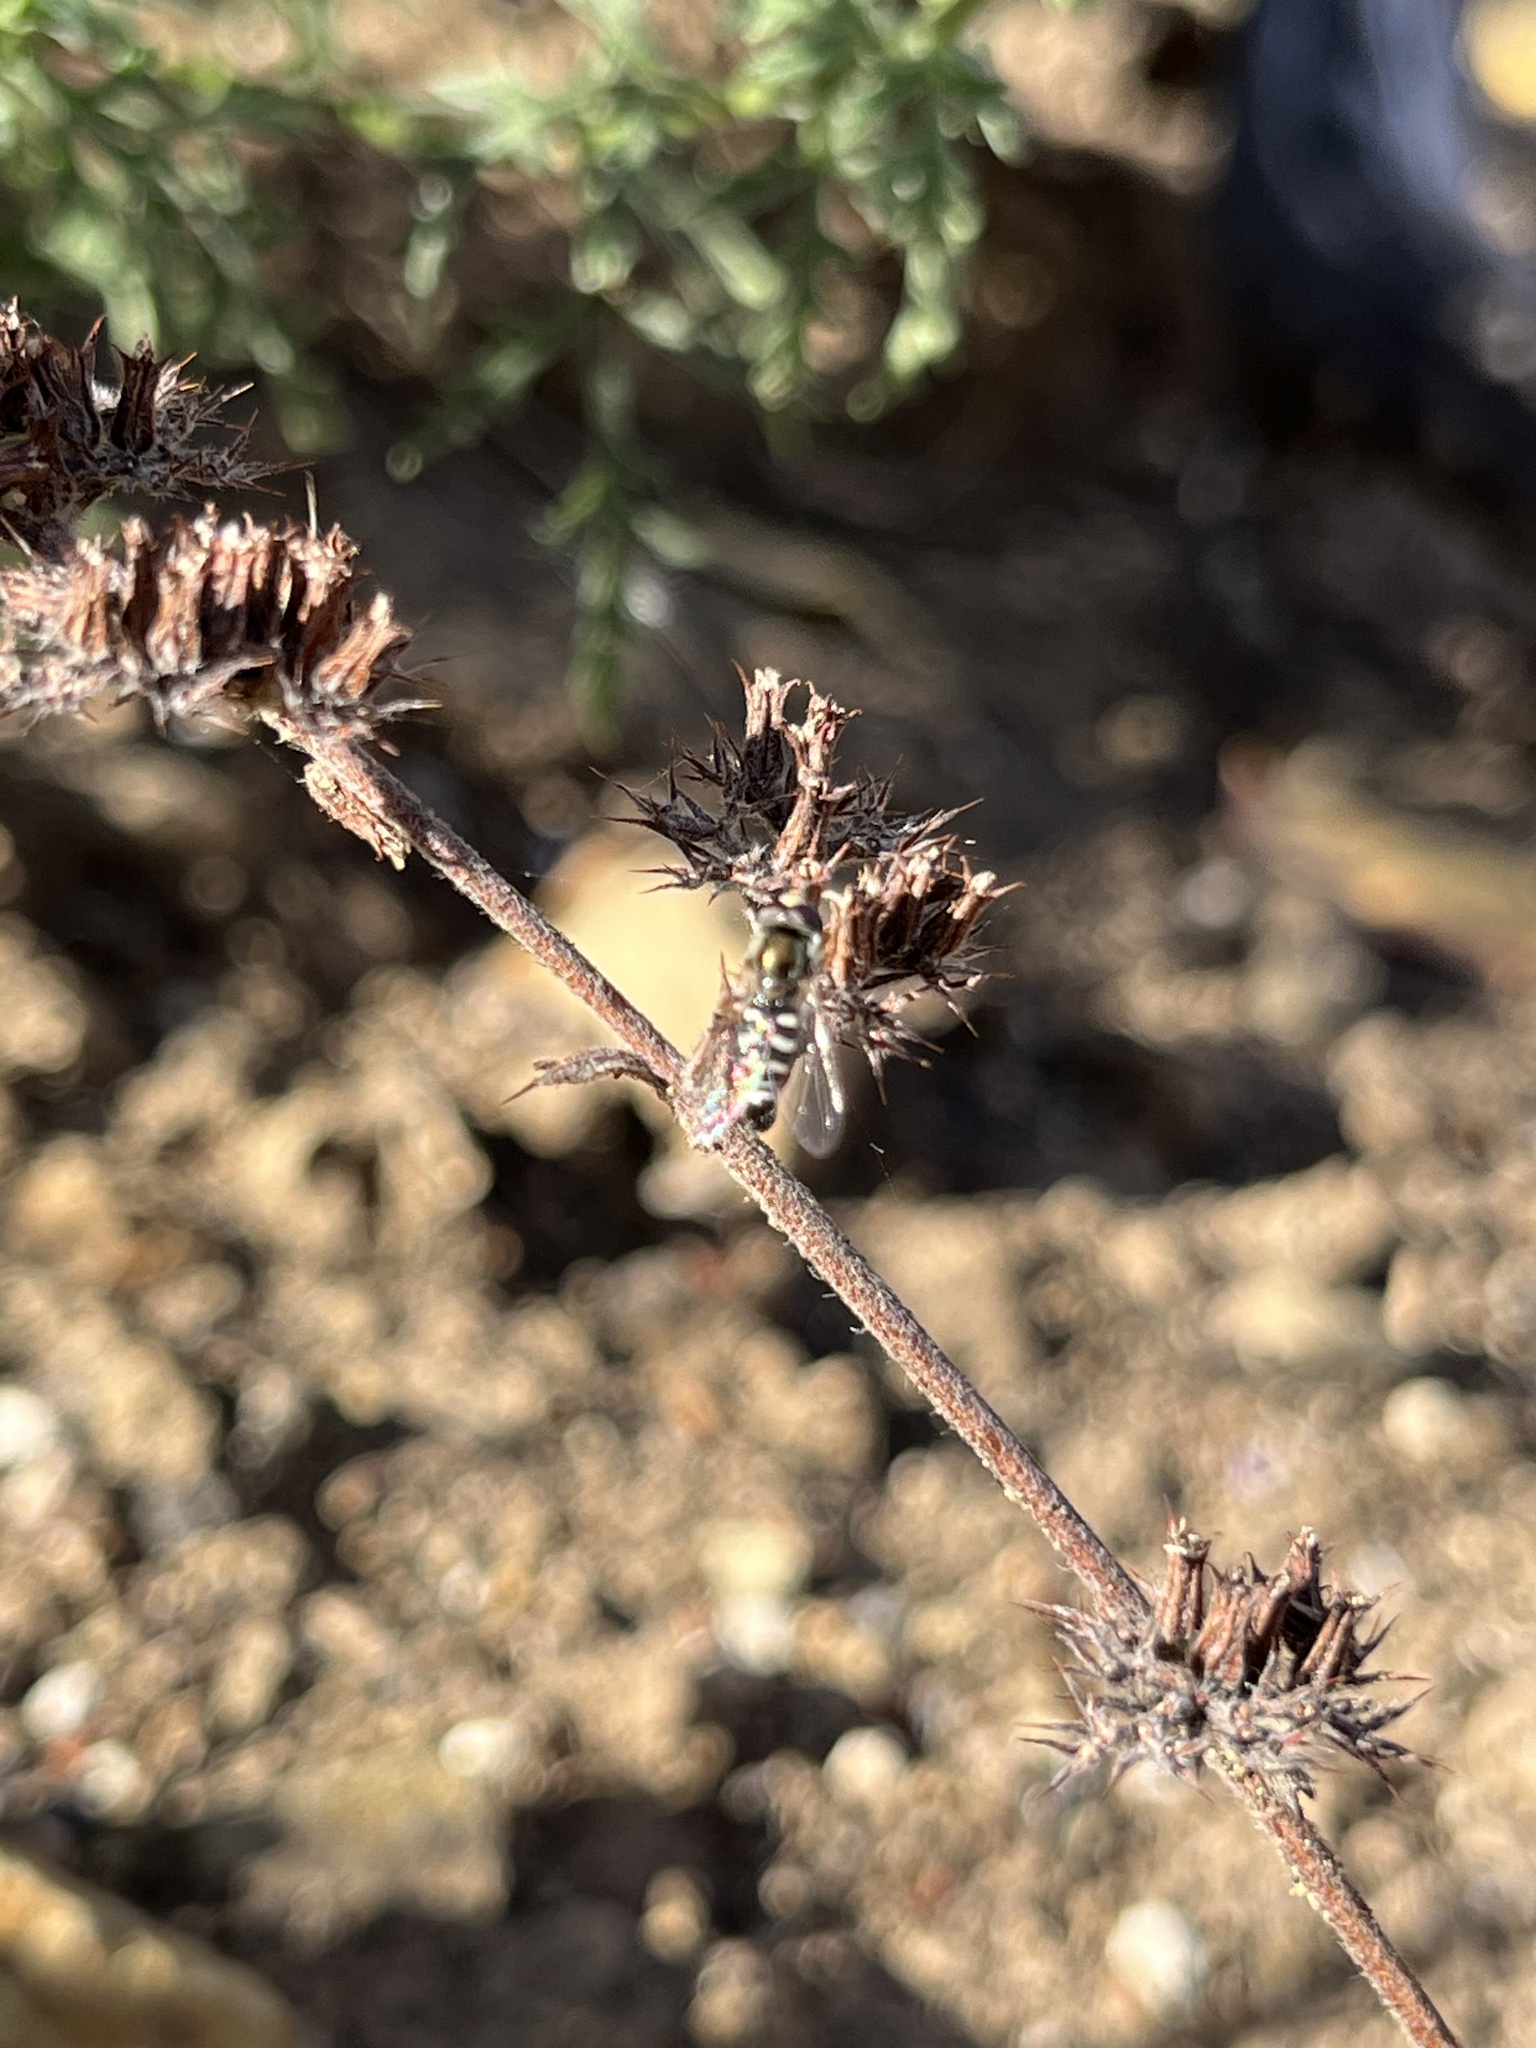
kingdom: Animalia
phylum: Arthropoda
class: Insecta
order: Diptera
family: Syrphidae
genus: Eupeodes
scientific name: Eupeodes volucris
